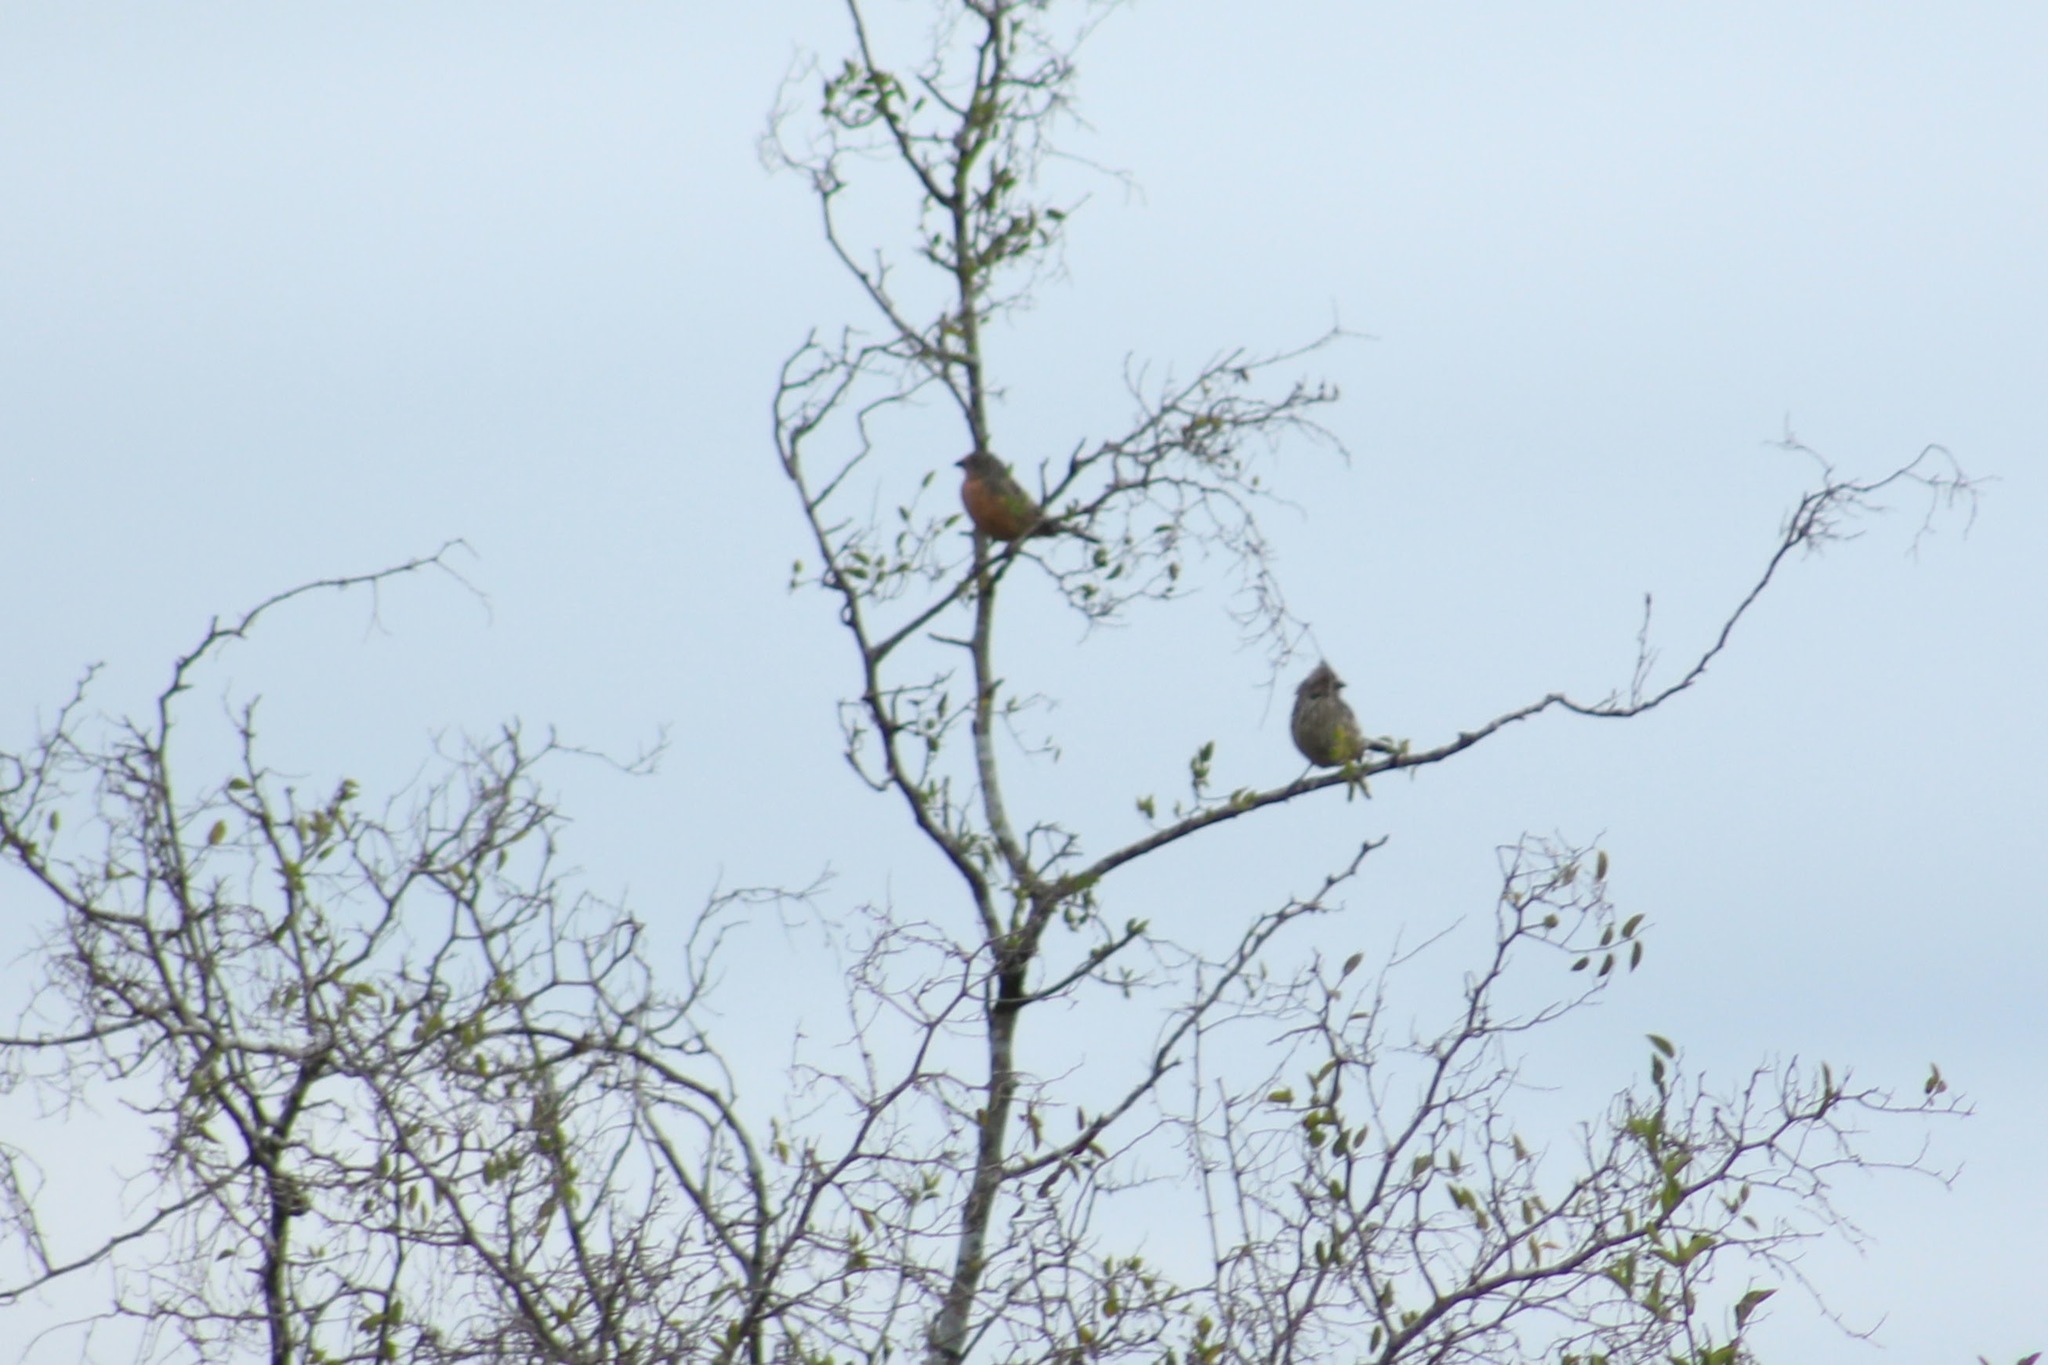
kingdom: Animalia
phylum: Chordata
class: Aves
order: Passeriformes
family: Cotingidae
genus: Phytotoma
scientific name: Phytotoma rutila
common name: White-tipped plantcutter
